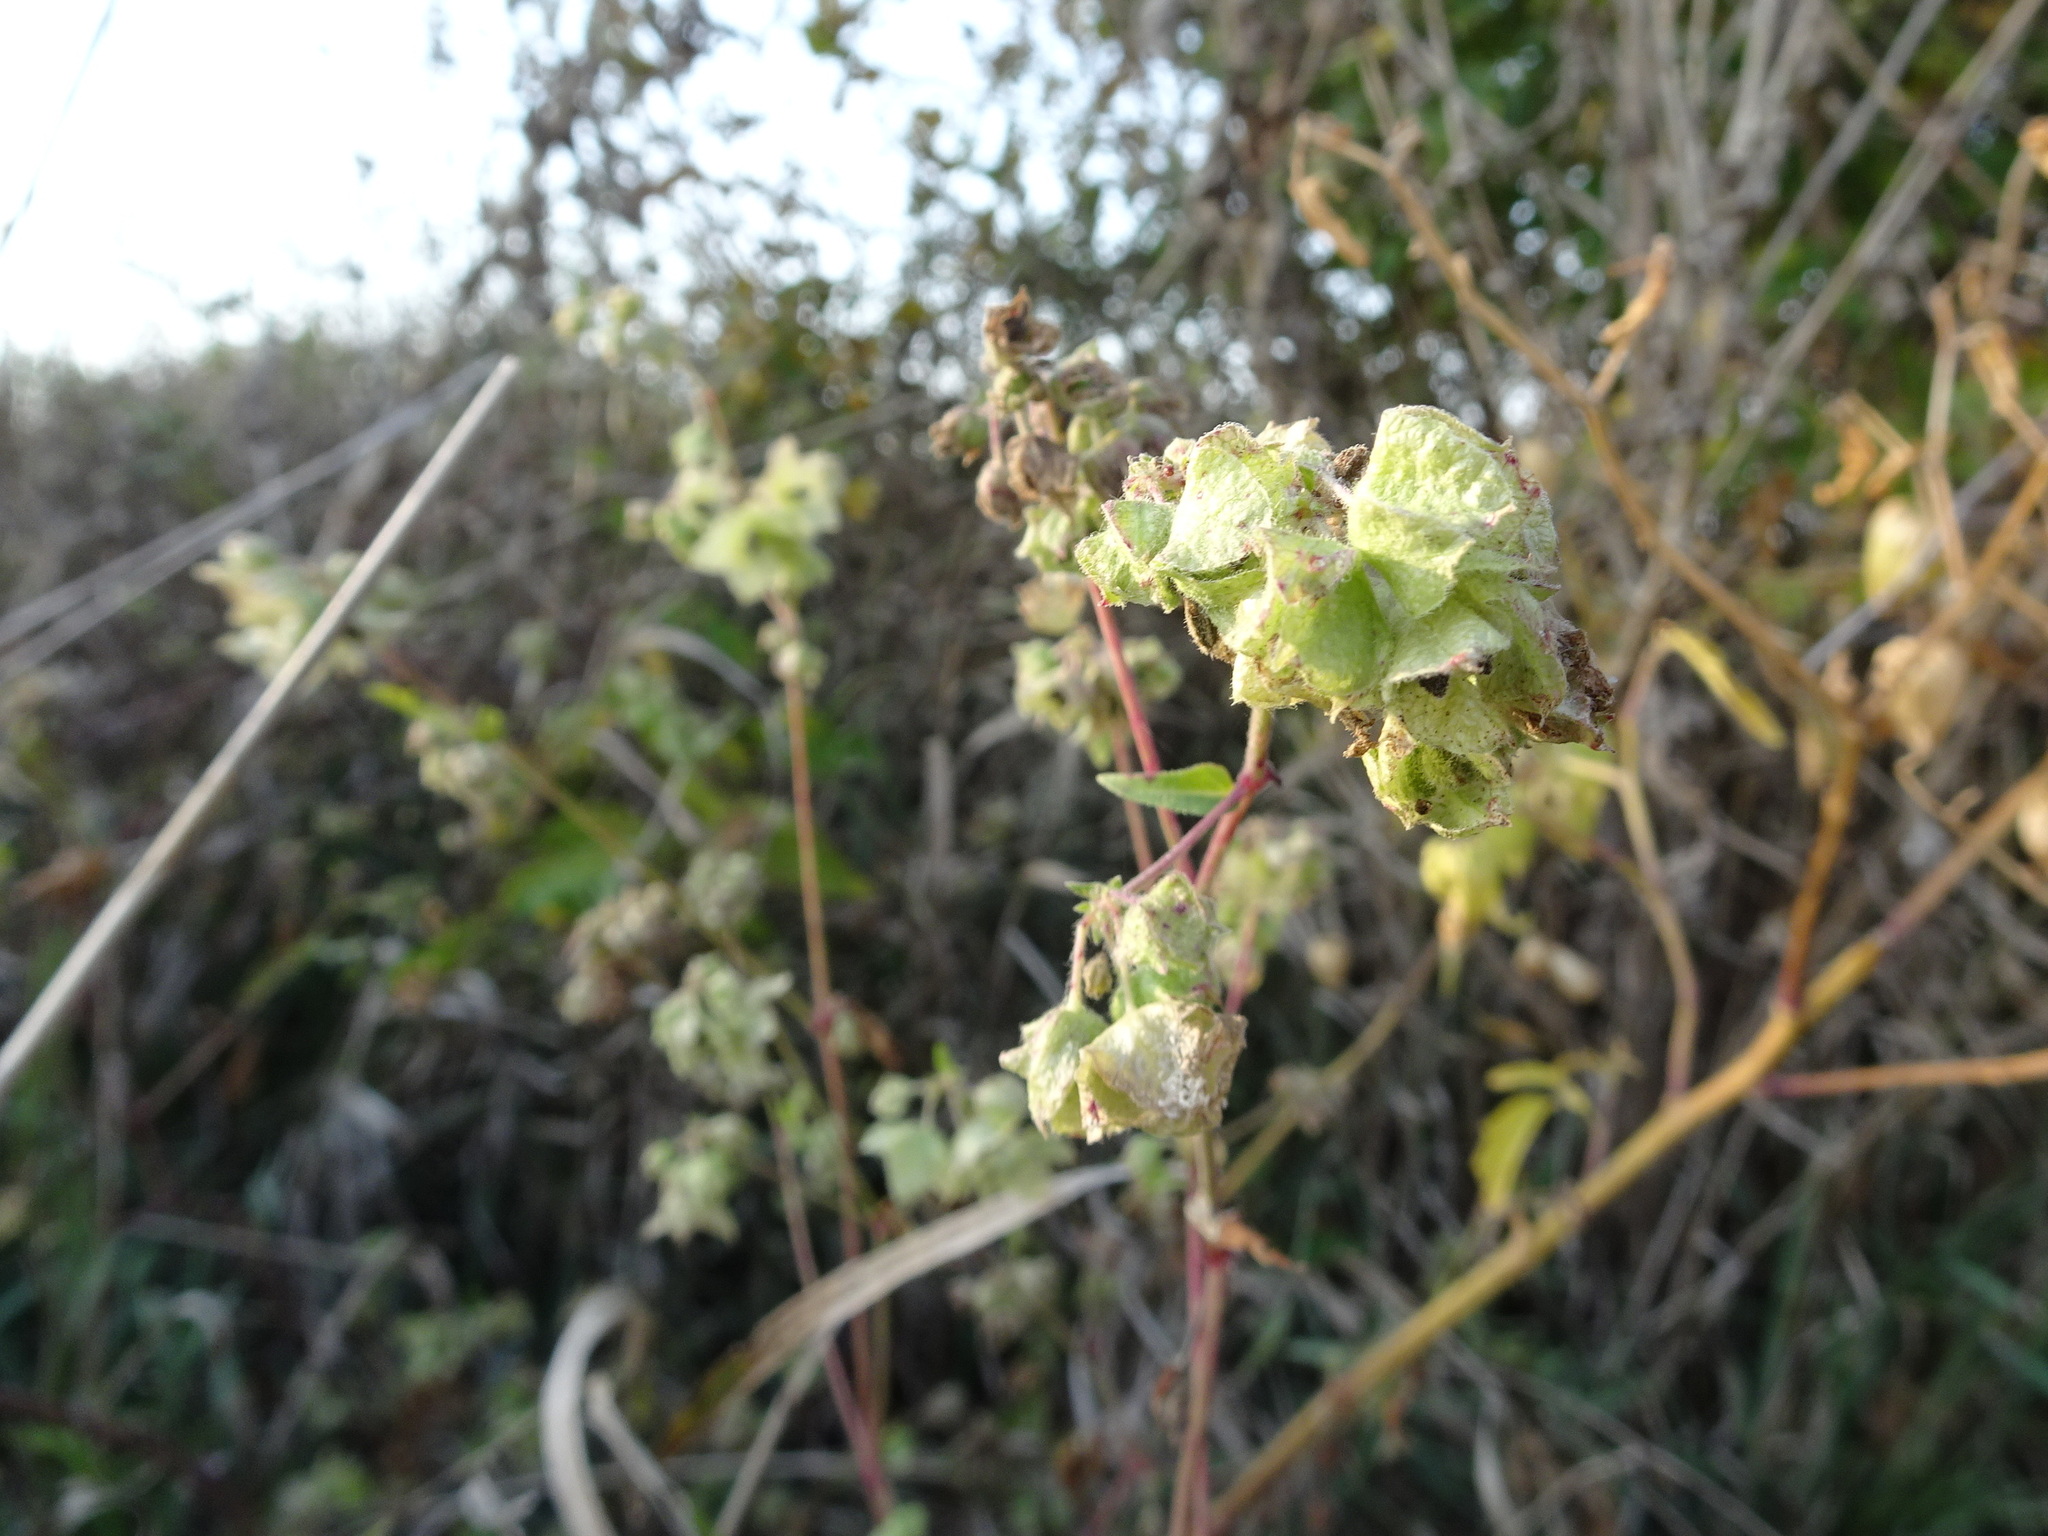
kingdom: Plantae
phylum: Tracheophyta
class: Magnoliopsida
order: Caryophyllales
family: Nyctaginaceae
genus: Mirabilis
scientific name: Mirabilis nyctaginea
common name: Umbrella wort
